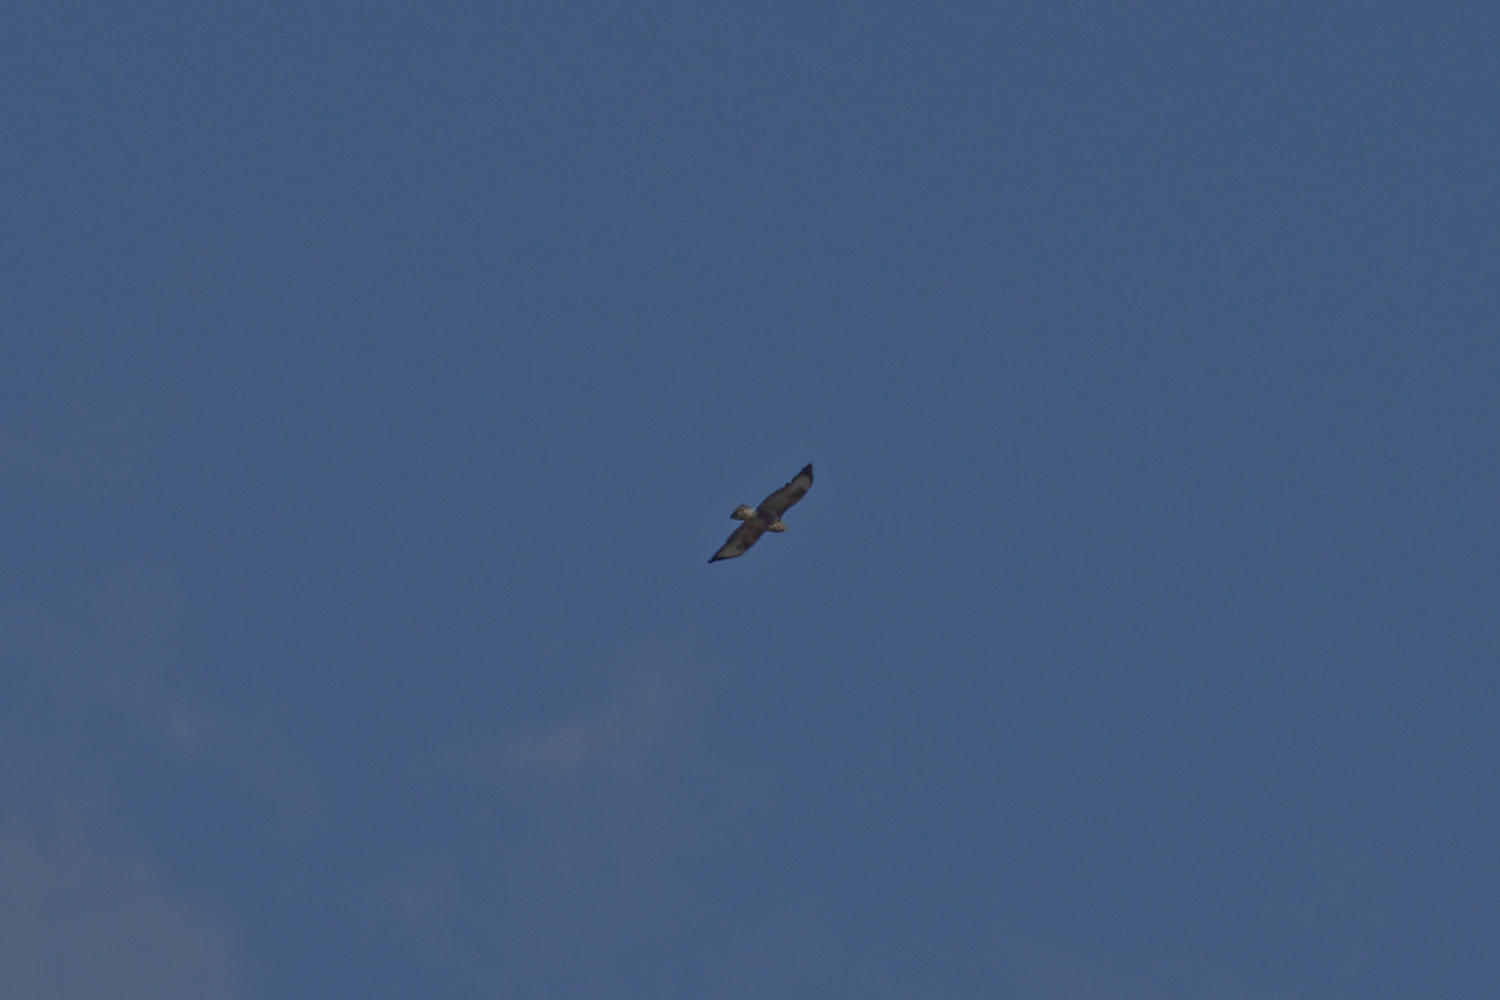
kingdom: Animalia
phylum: Chordata
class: Aves
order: Accipitriformes
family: Accipitridae
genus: Buteo
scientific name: Buteo buteo
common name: Common buzzard
